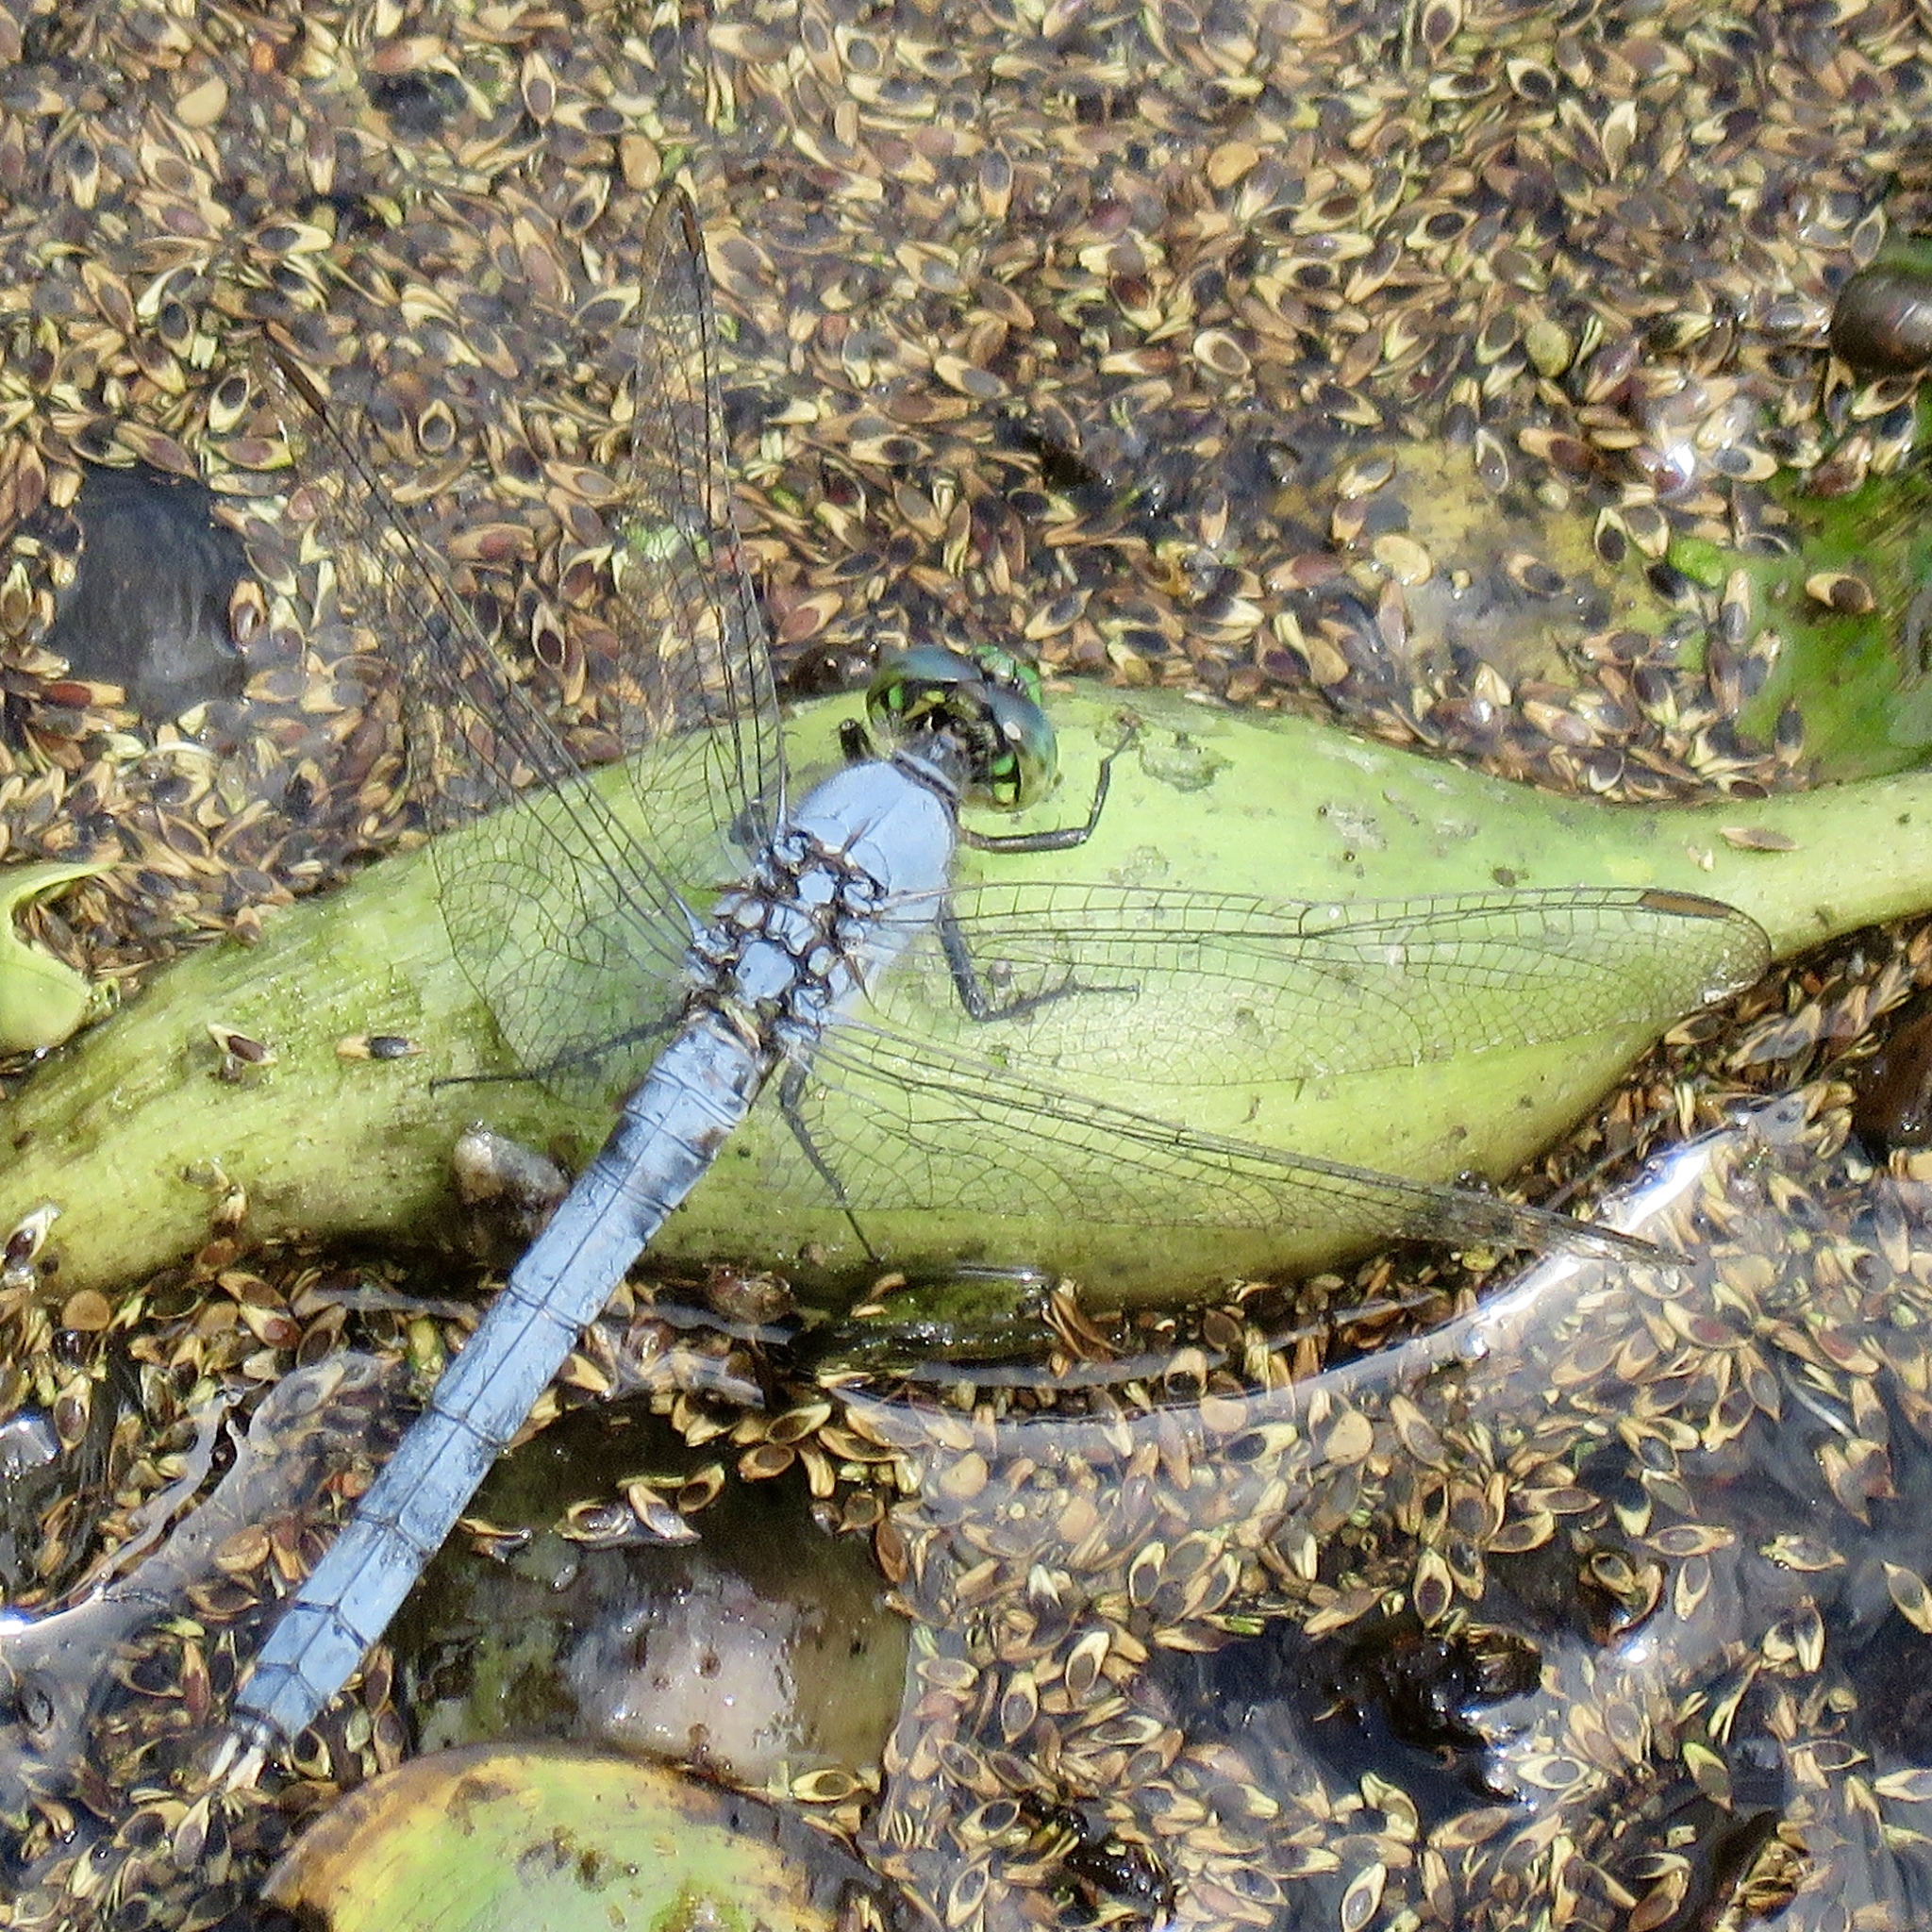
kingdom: Animalia
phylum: Arthropoda
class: Insecta
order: Odonata
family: Libellulidae
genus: Erythemis
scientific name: Erythemis simplicicollis
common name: Eastern pondhawk
